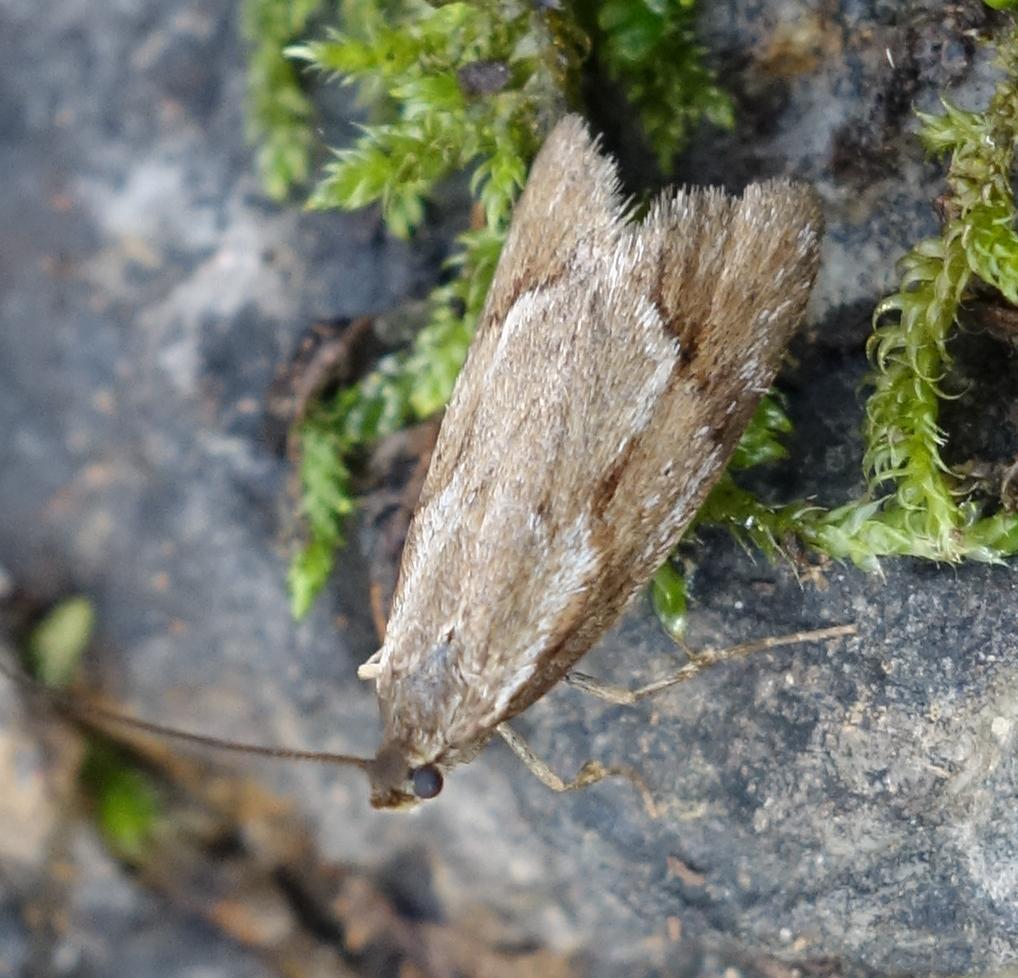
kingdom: Animalia
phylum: Arthropoda
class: Insecta
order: Lepidoptera
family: Lypusidae
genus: Diurnea
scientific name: Diurnea lipsiella
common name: November tubic
